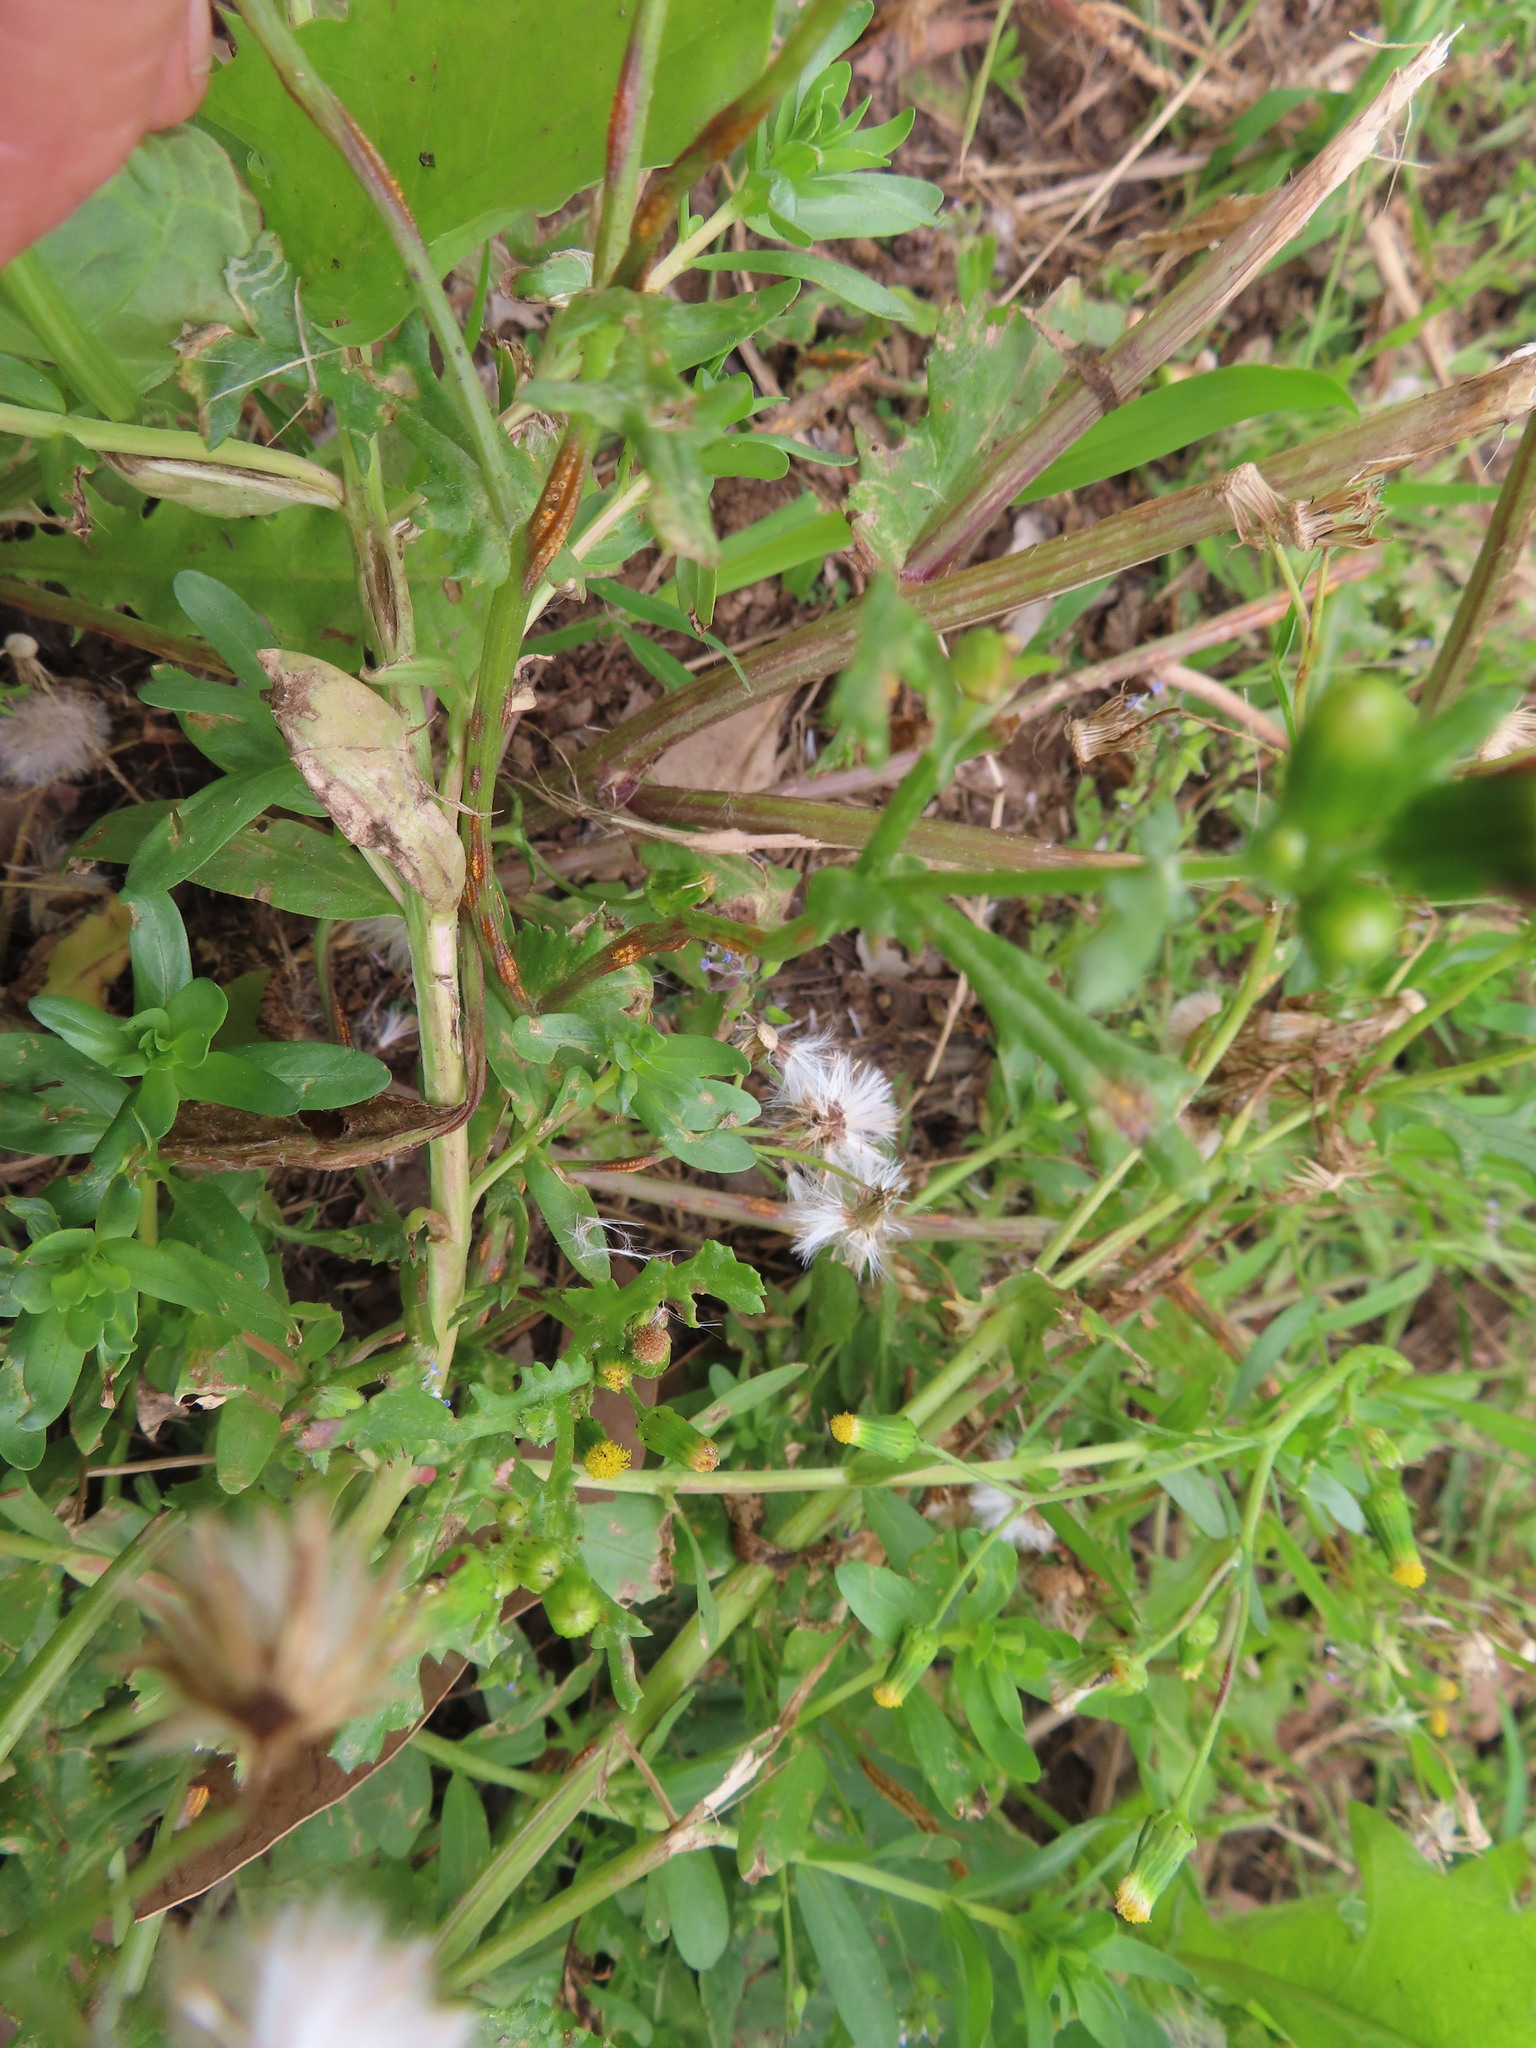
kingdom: Plantae
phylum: Tracheophyta
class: Magnoliopsida
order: Asterales
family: Asteraceae
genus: Senecio
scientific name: Senecio vulgaris
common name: Old-man-in-the-spring
